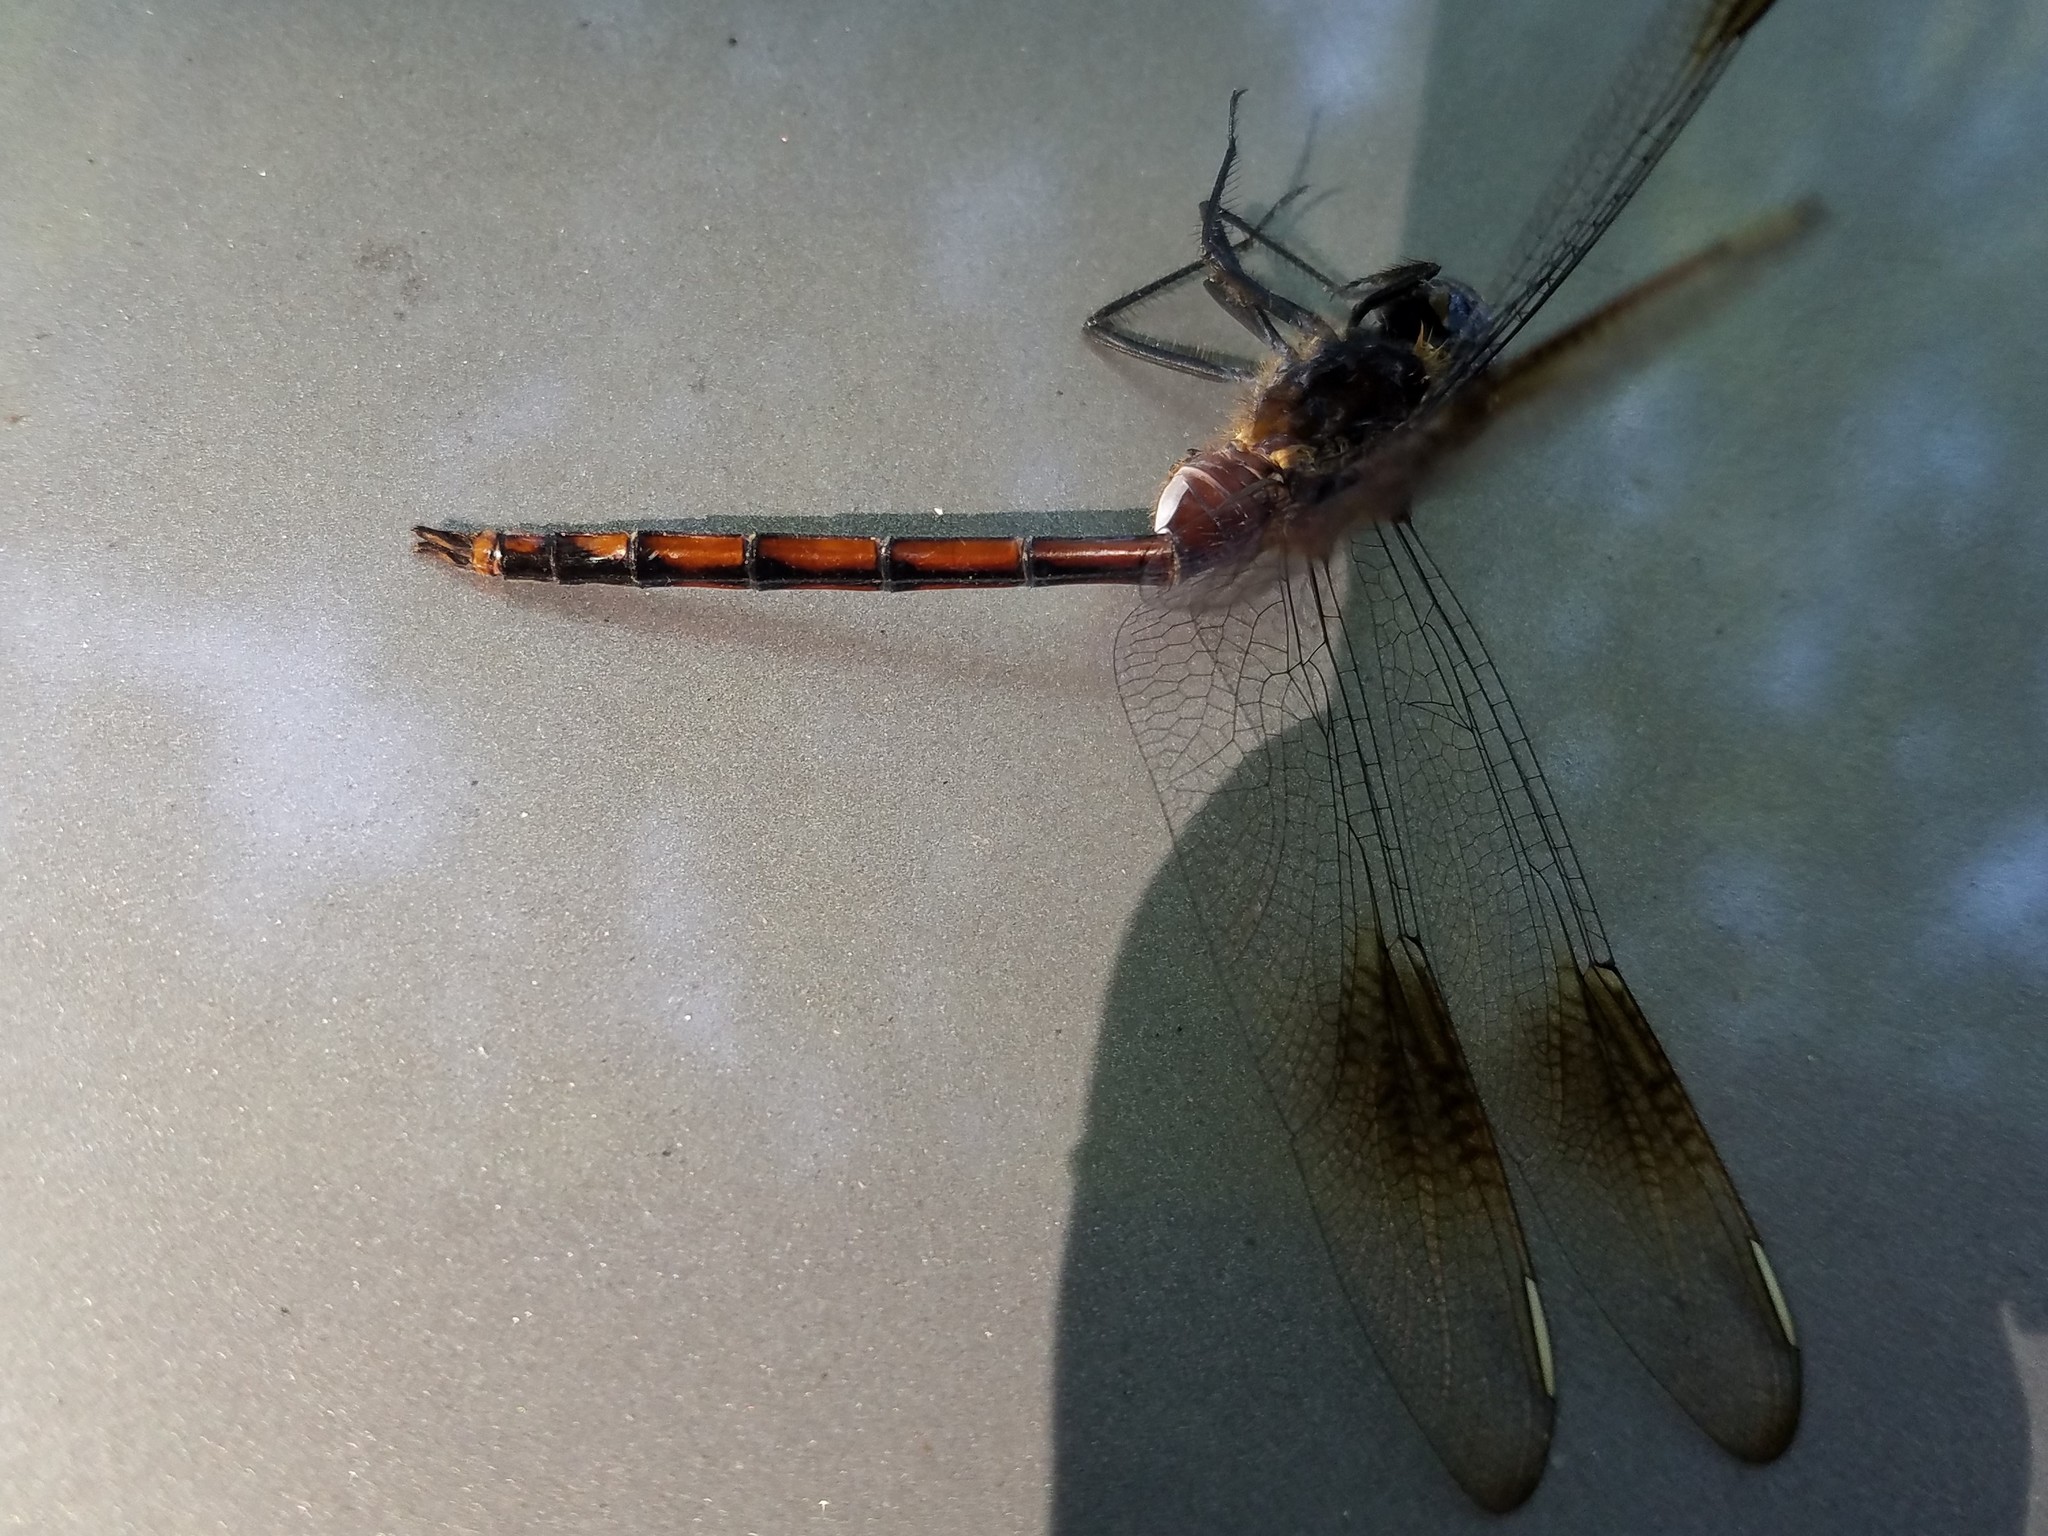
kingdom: Animalia
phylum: Arthropoda
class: Insecta
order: Odonata
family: Libellulidae
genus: Brachymesia
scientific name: Brachymesia gravida
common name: Four-spotted pennant
